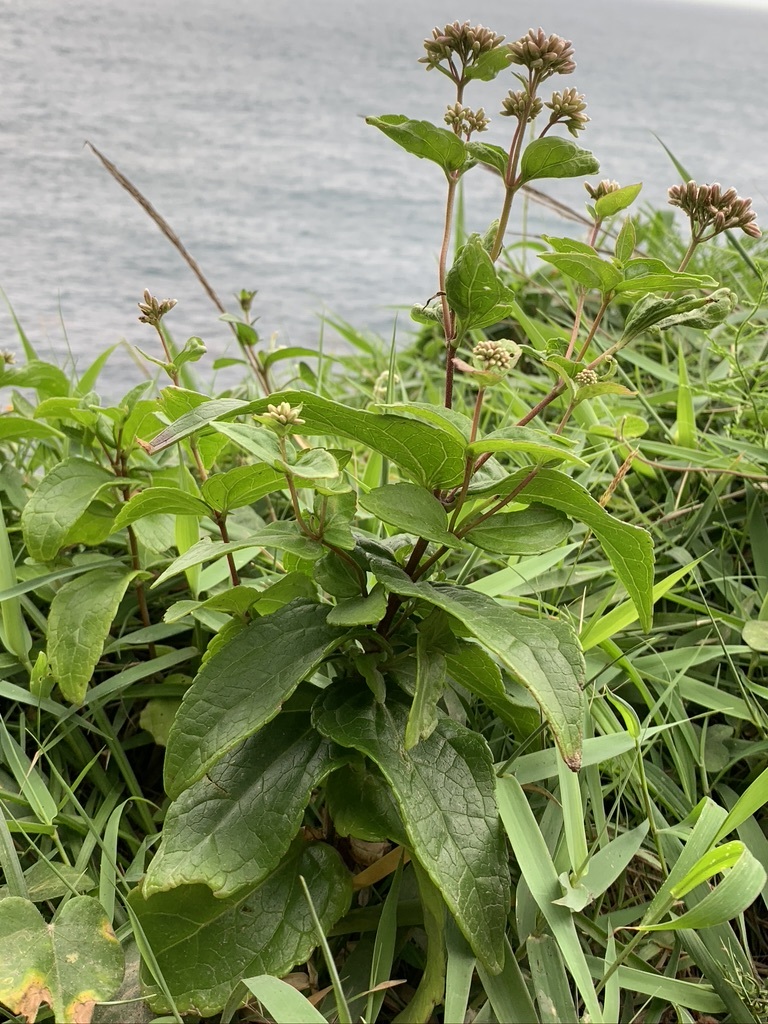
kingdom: Plantae
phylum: Tracheophyta
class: Magnoliopsida
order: Asterales
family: Asteraceae
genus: Eupatorium
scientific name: Eupatorium luchuense
